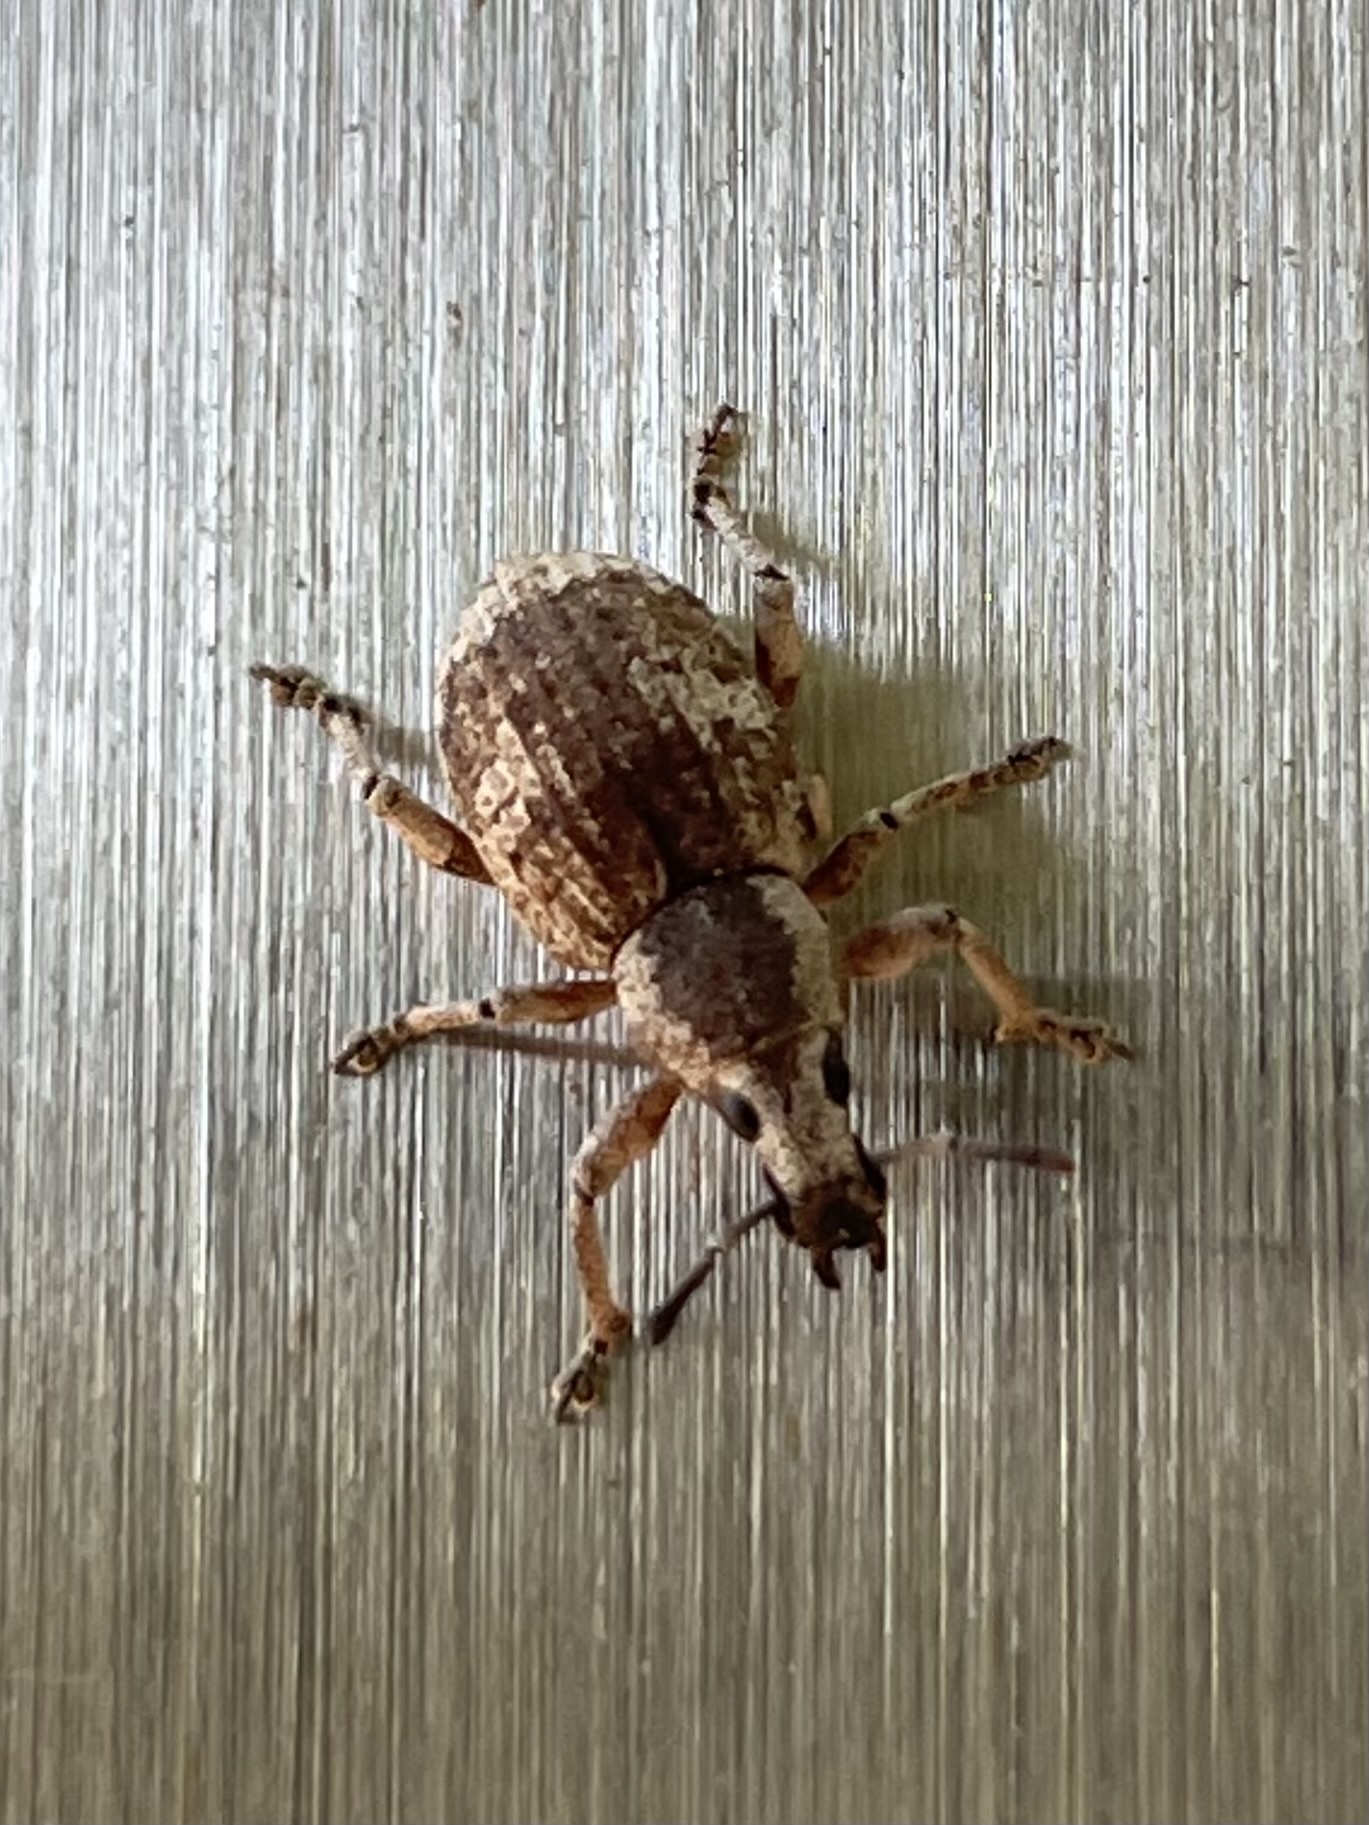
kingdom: Animalia
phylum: Arthropoda
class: Insecta
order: Coleoptera
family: Curculionidae
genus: Omileus
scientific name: Omileus epicaeroides
